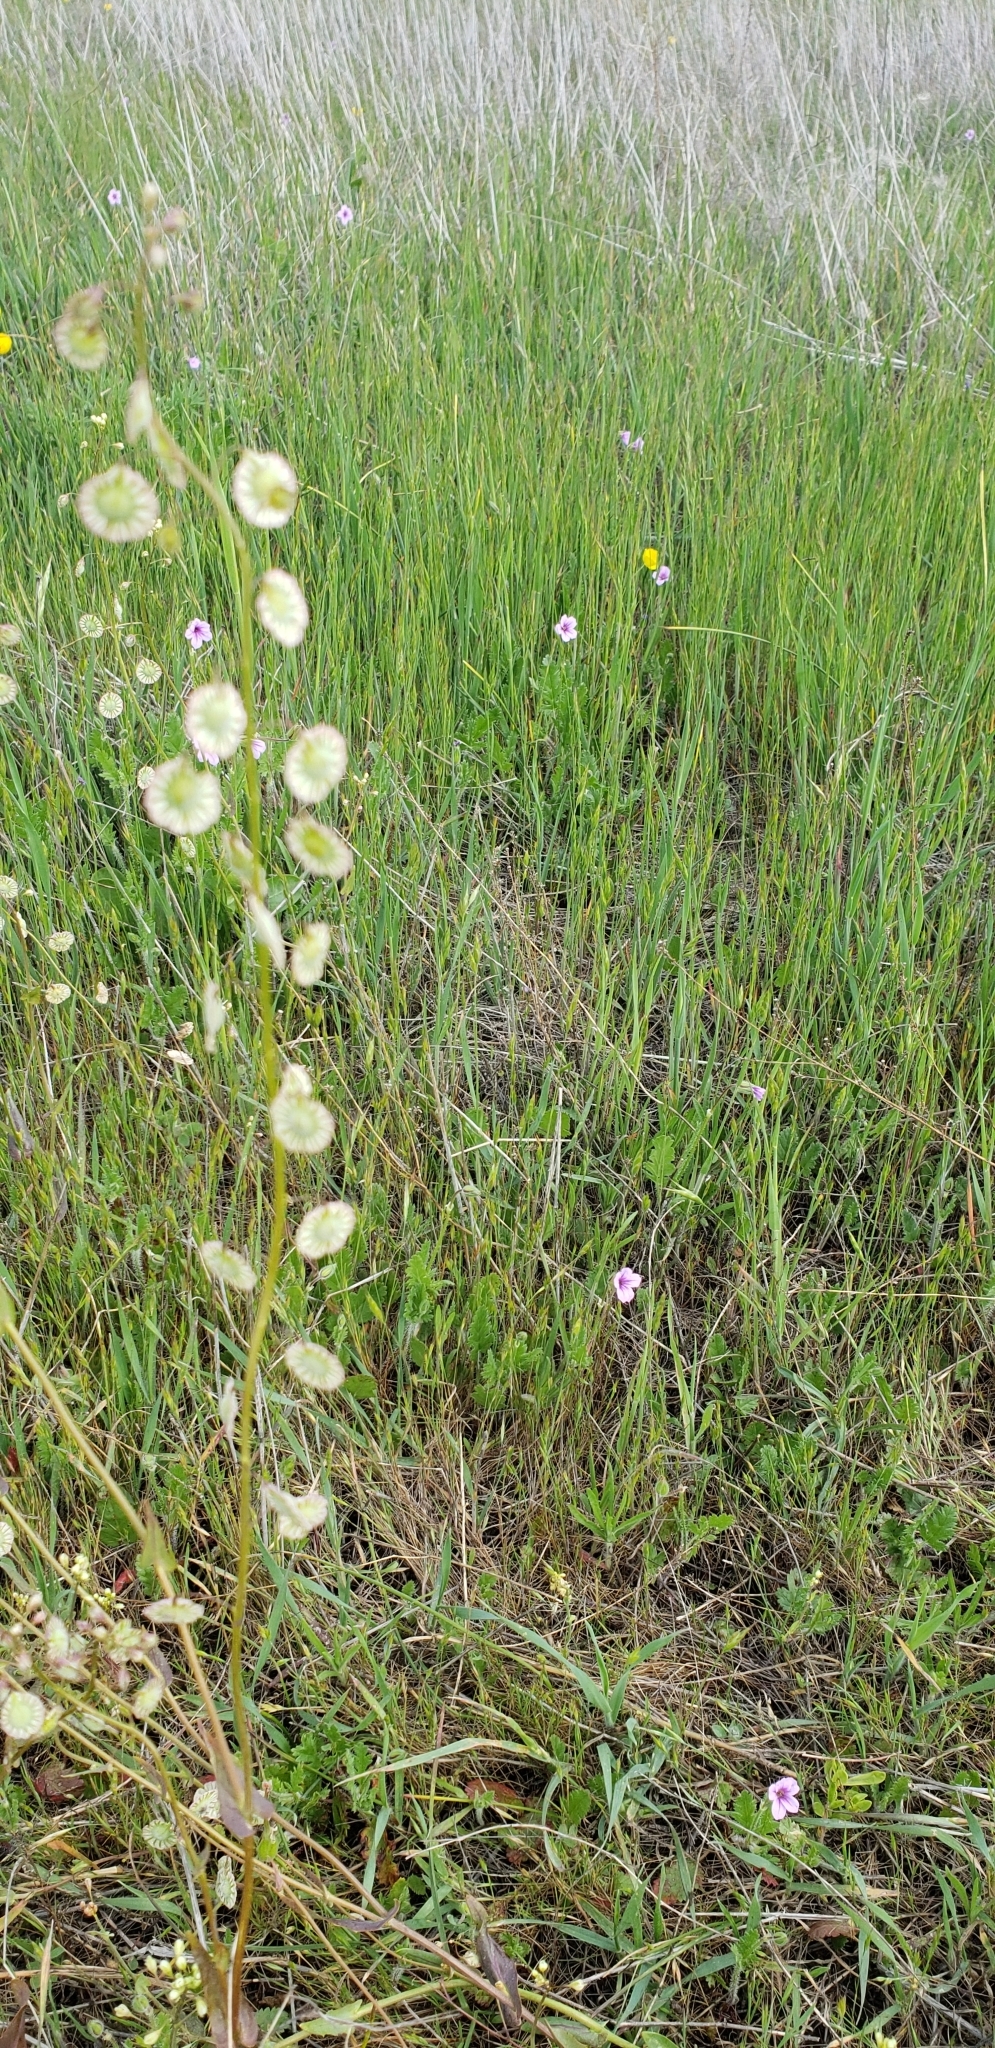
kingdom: Plantae
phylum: Tracheophyta
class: Magnoliopsida
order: Brassicales
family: Brassicaceae
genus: Thysanocarpus
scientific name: Thysanocarpus radians
